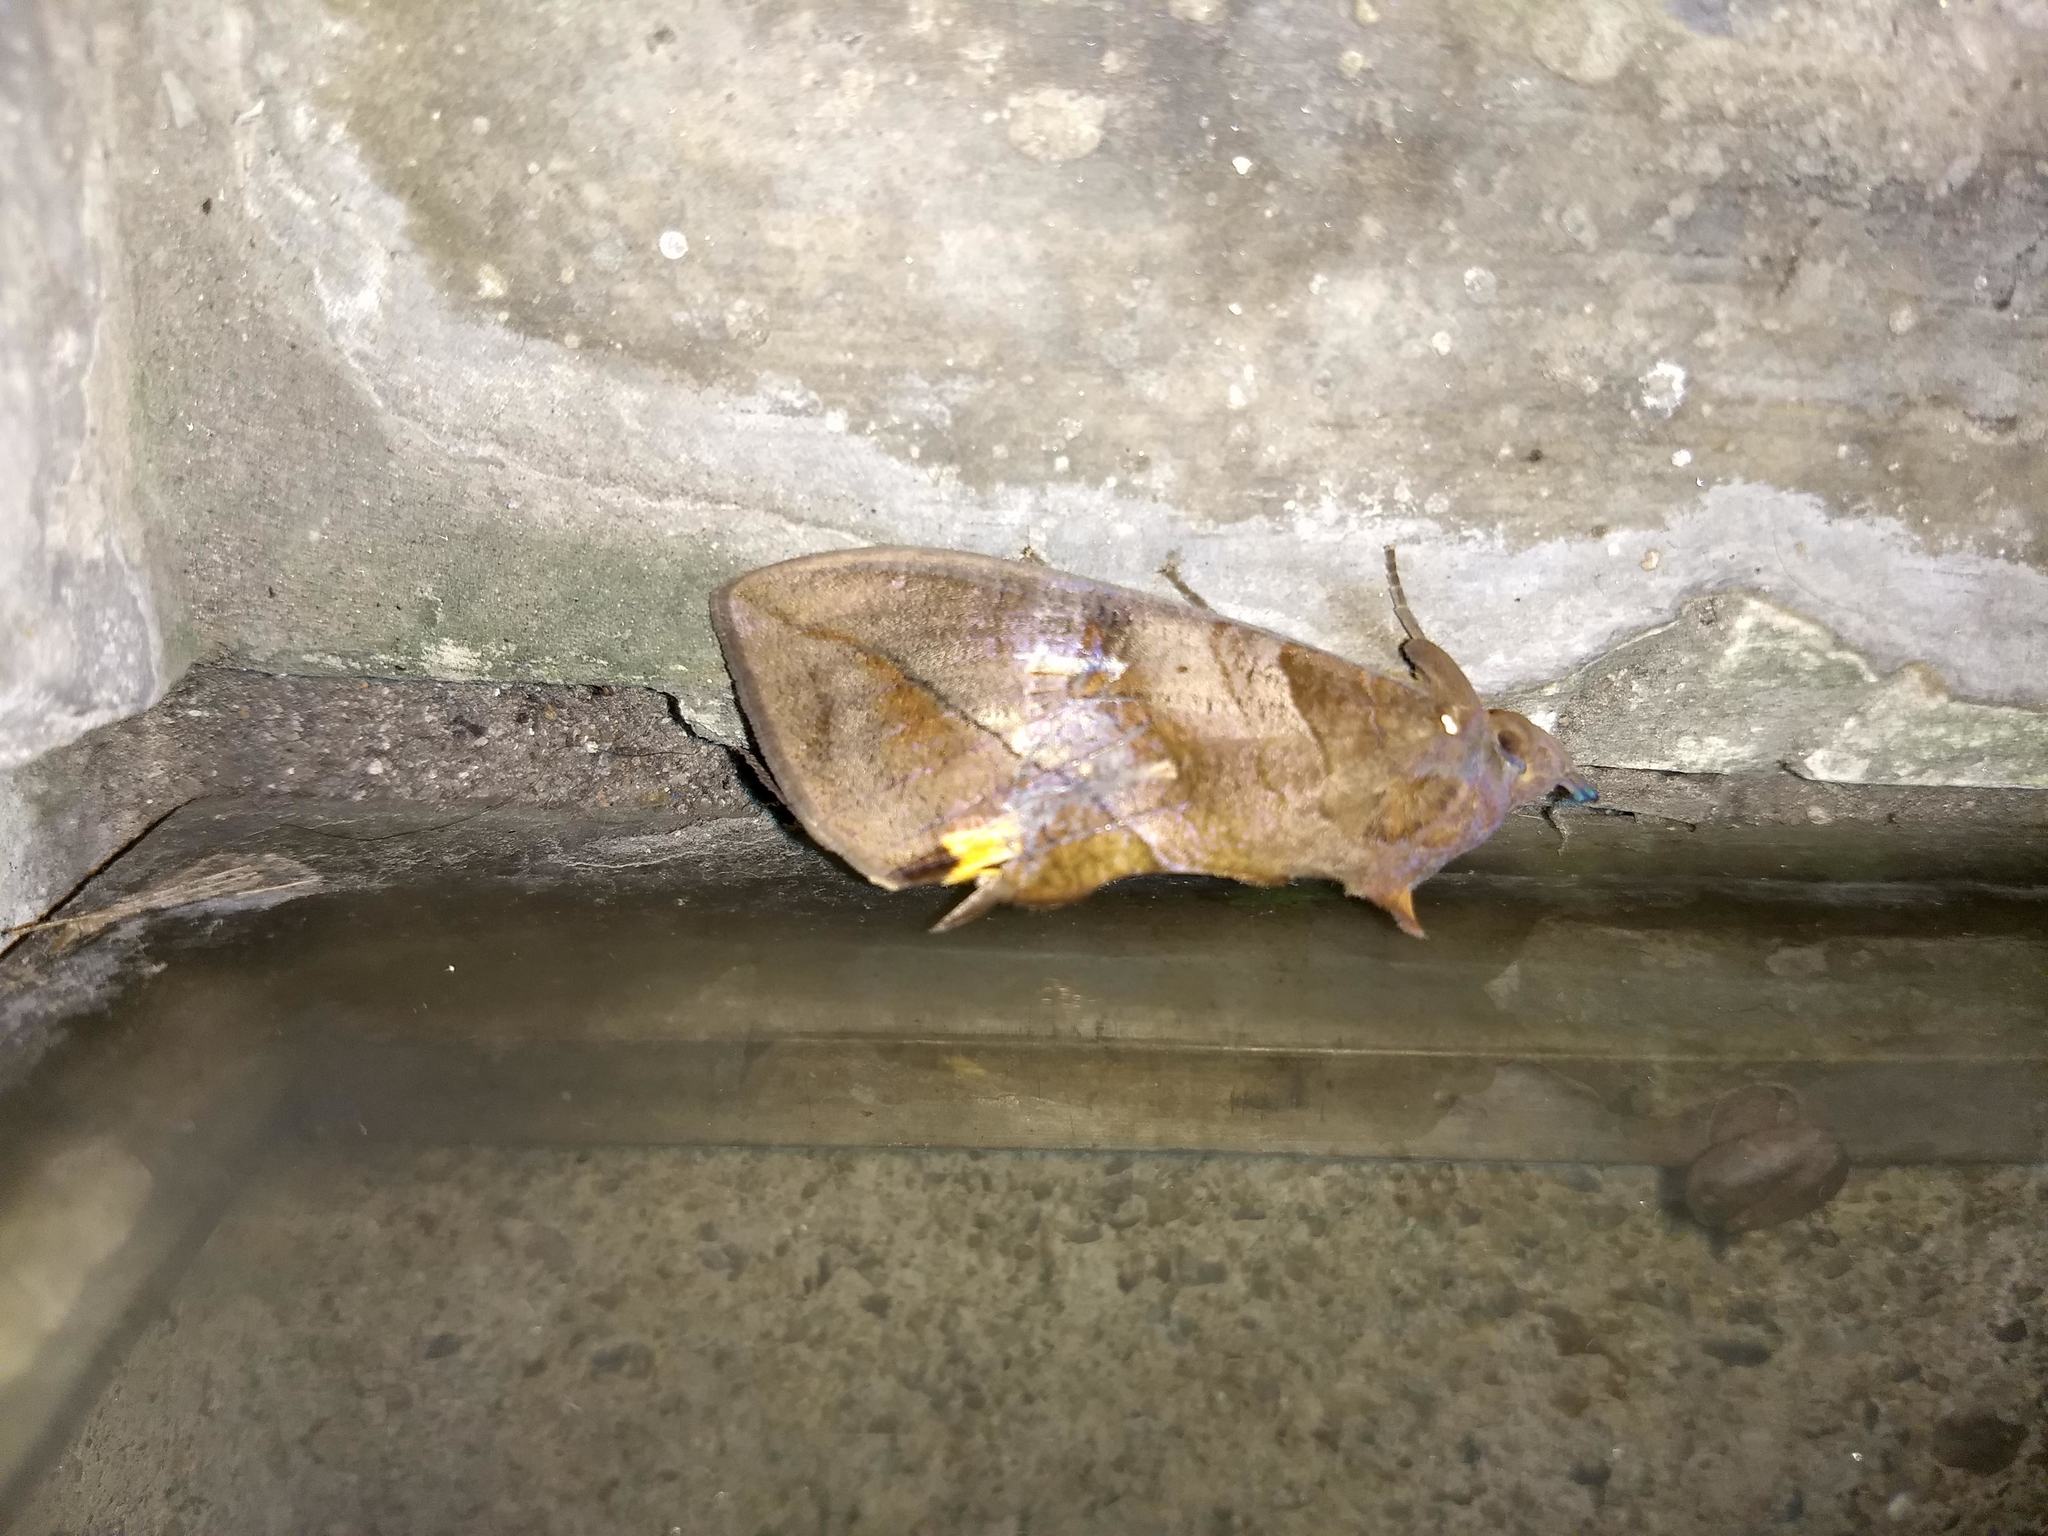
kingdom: Animalia
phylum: Arthropoda
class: Insecta
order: Lepidoptera
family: Erebidae
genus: Eudocima
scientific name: Eudocima serpentifera
